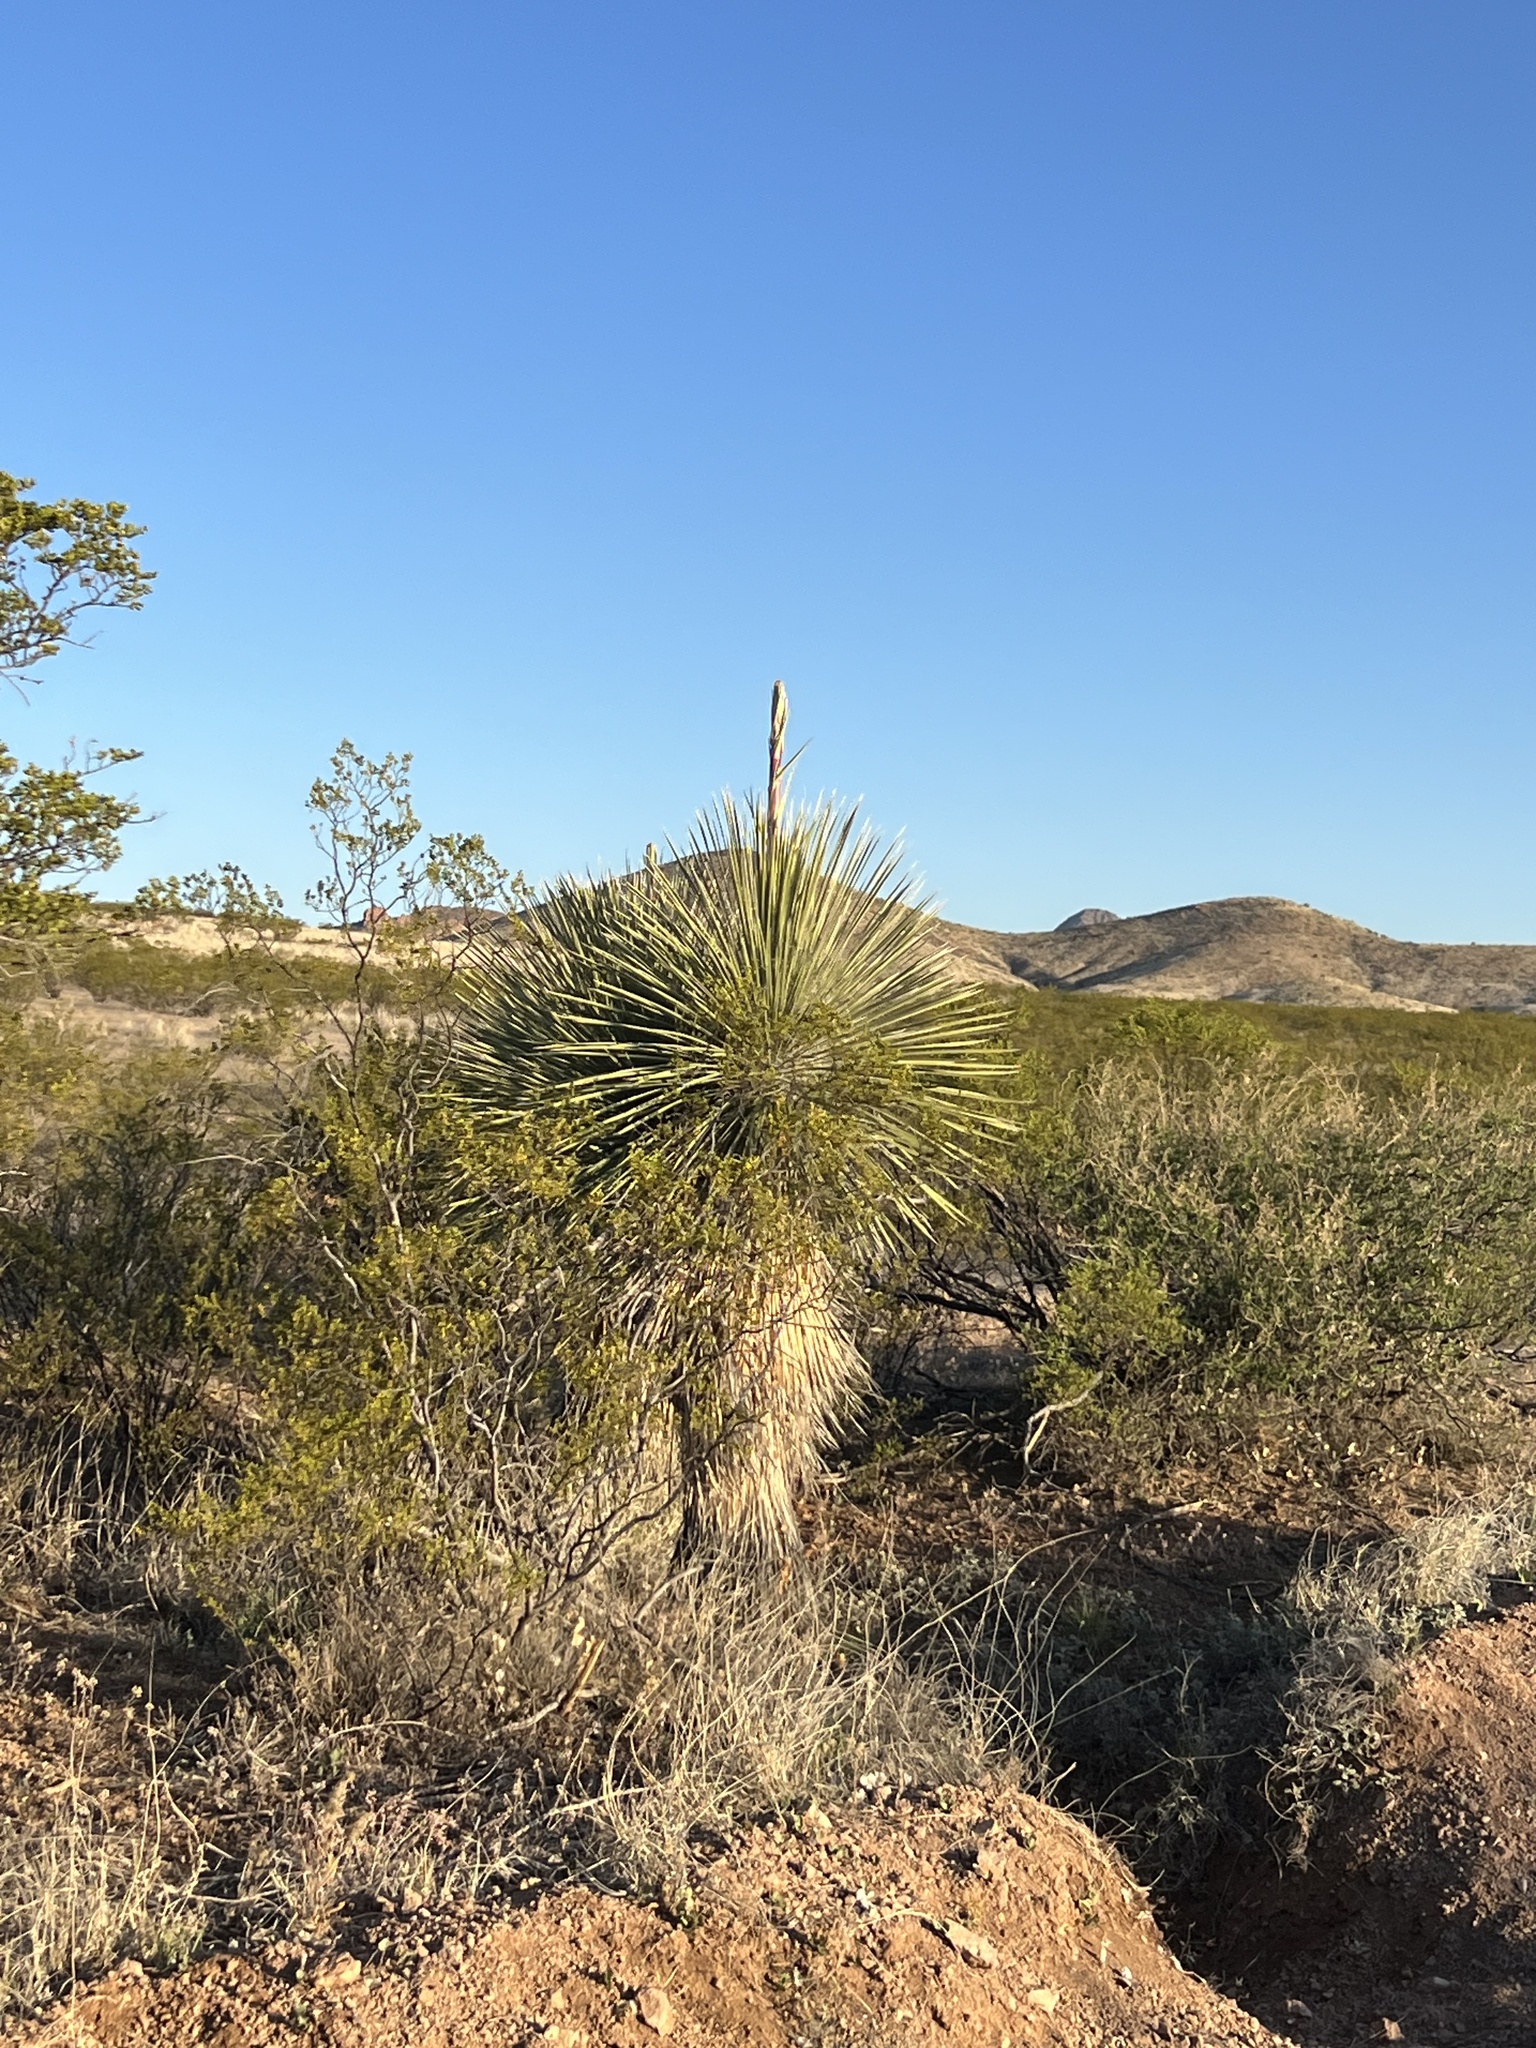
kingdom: Plantae
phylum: Tracheophyta
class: Liliopsida
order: Asparagales
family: Asparagaceae
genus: Yucca
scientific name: Yucca elata
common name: Palmella
